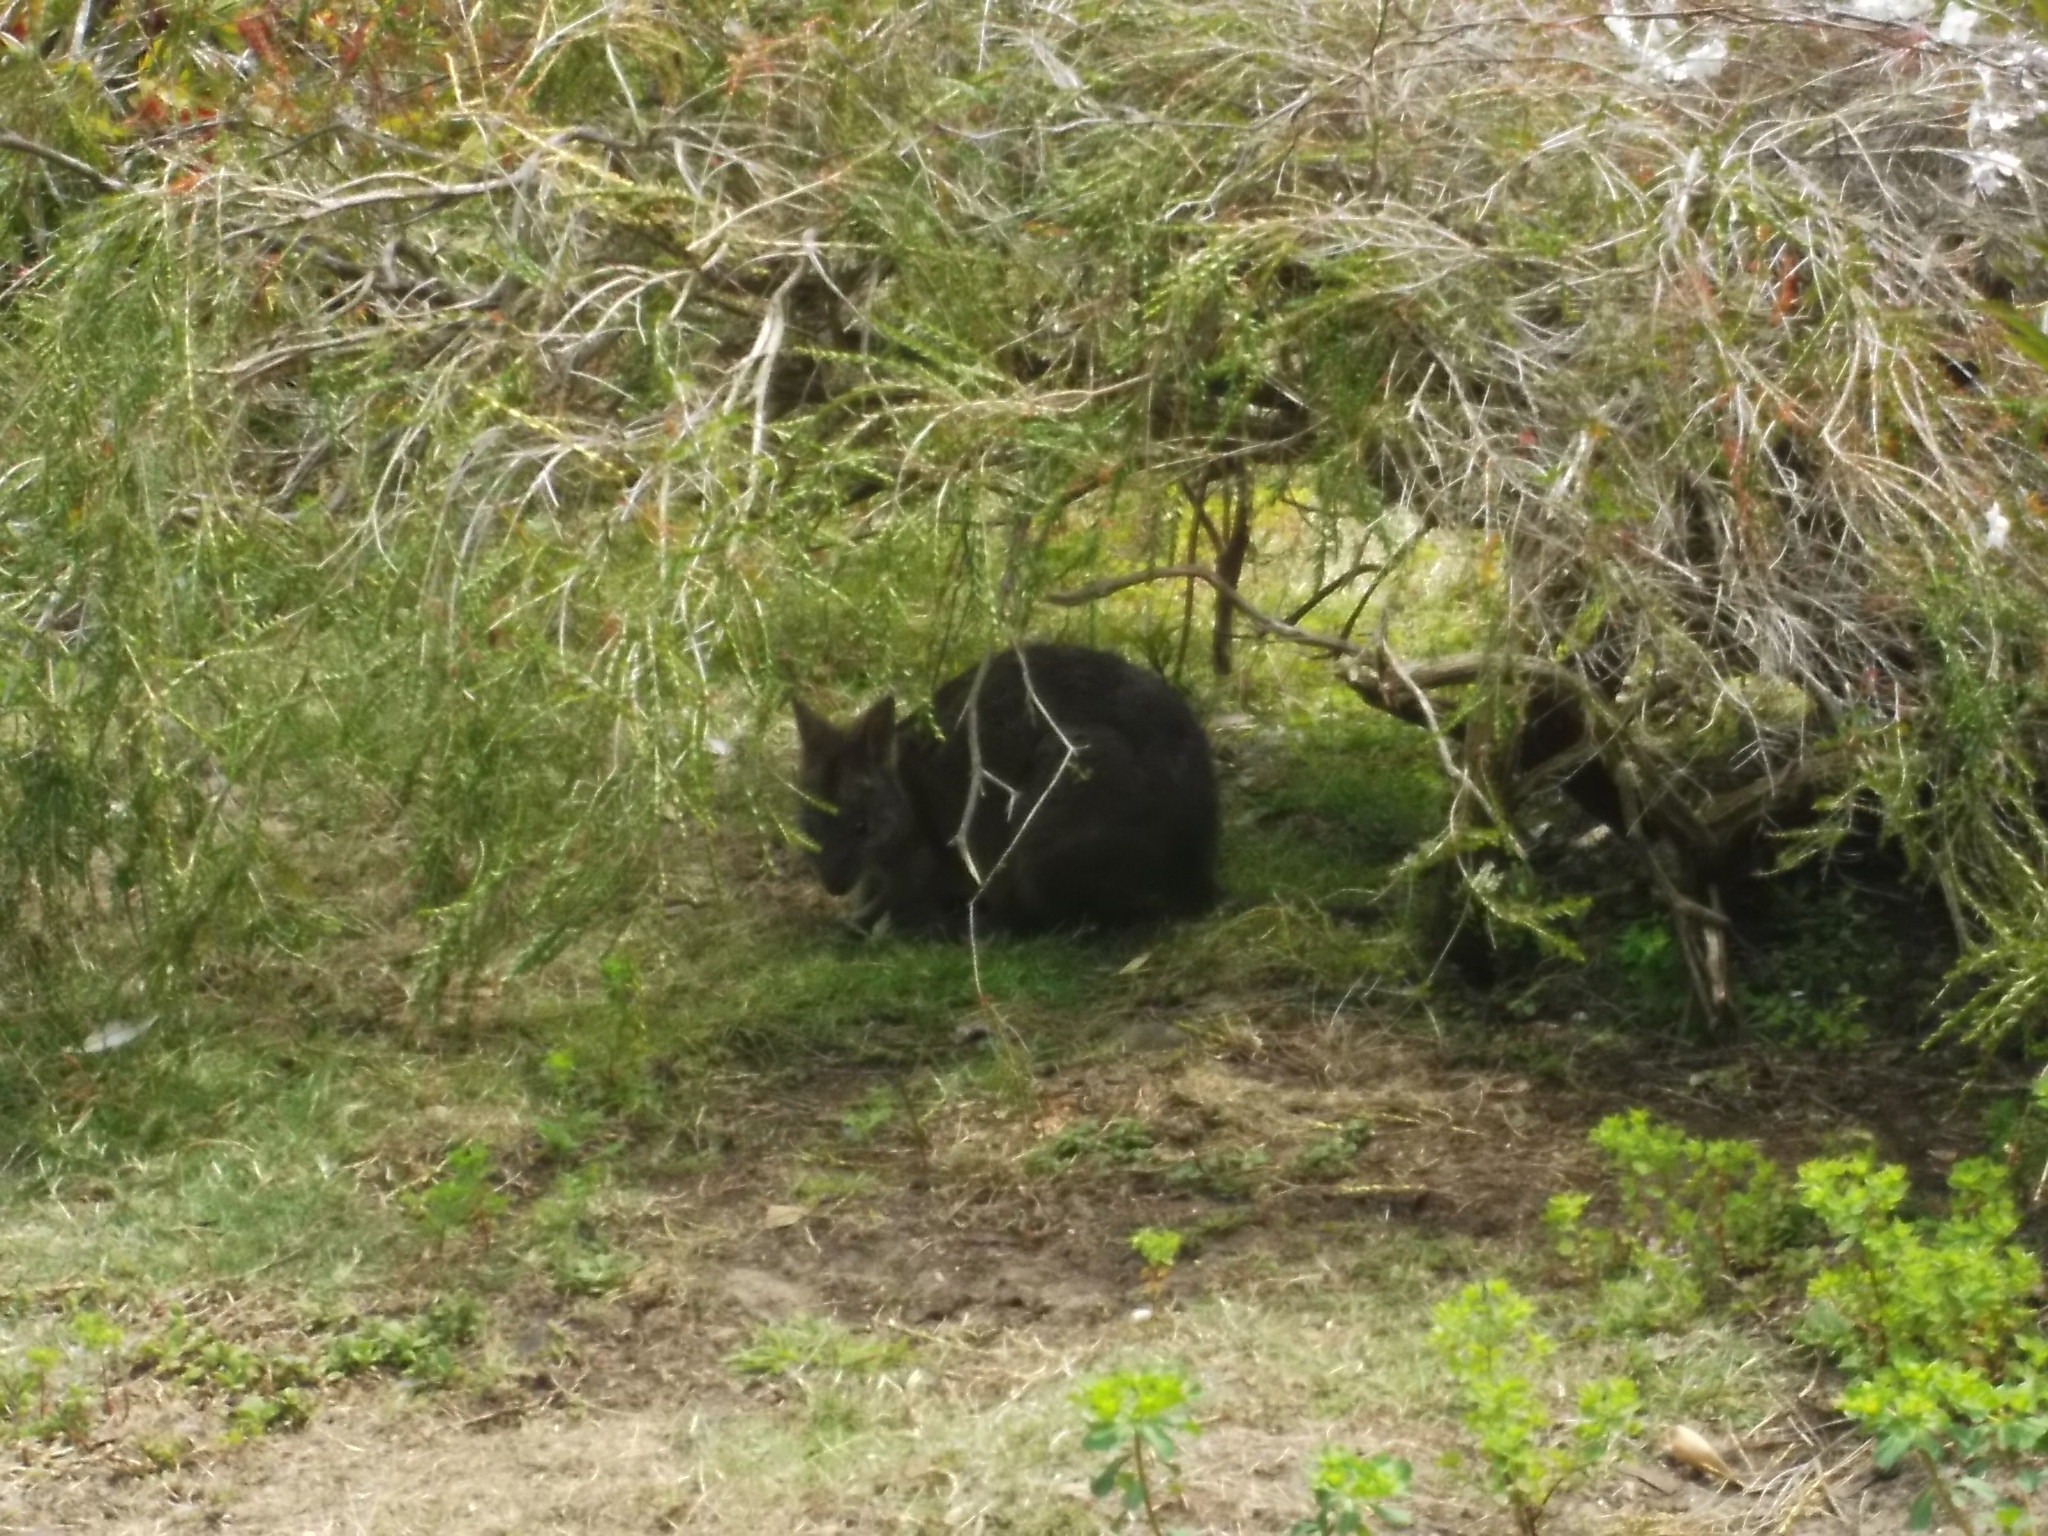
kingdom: Animalia
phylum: Chordata
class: Mammalia
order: Diprotodontia
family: Macropodidae
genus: Thylogale
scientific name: Thylogale billardierii
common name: Tasmanian pademelon
